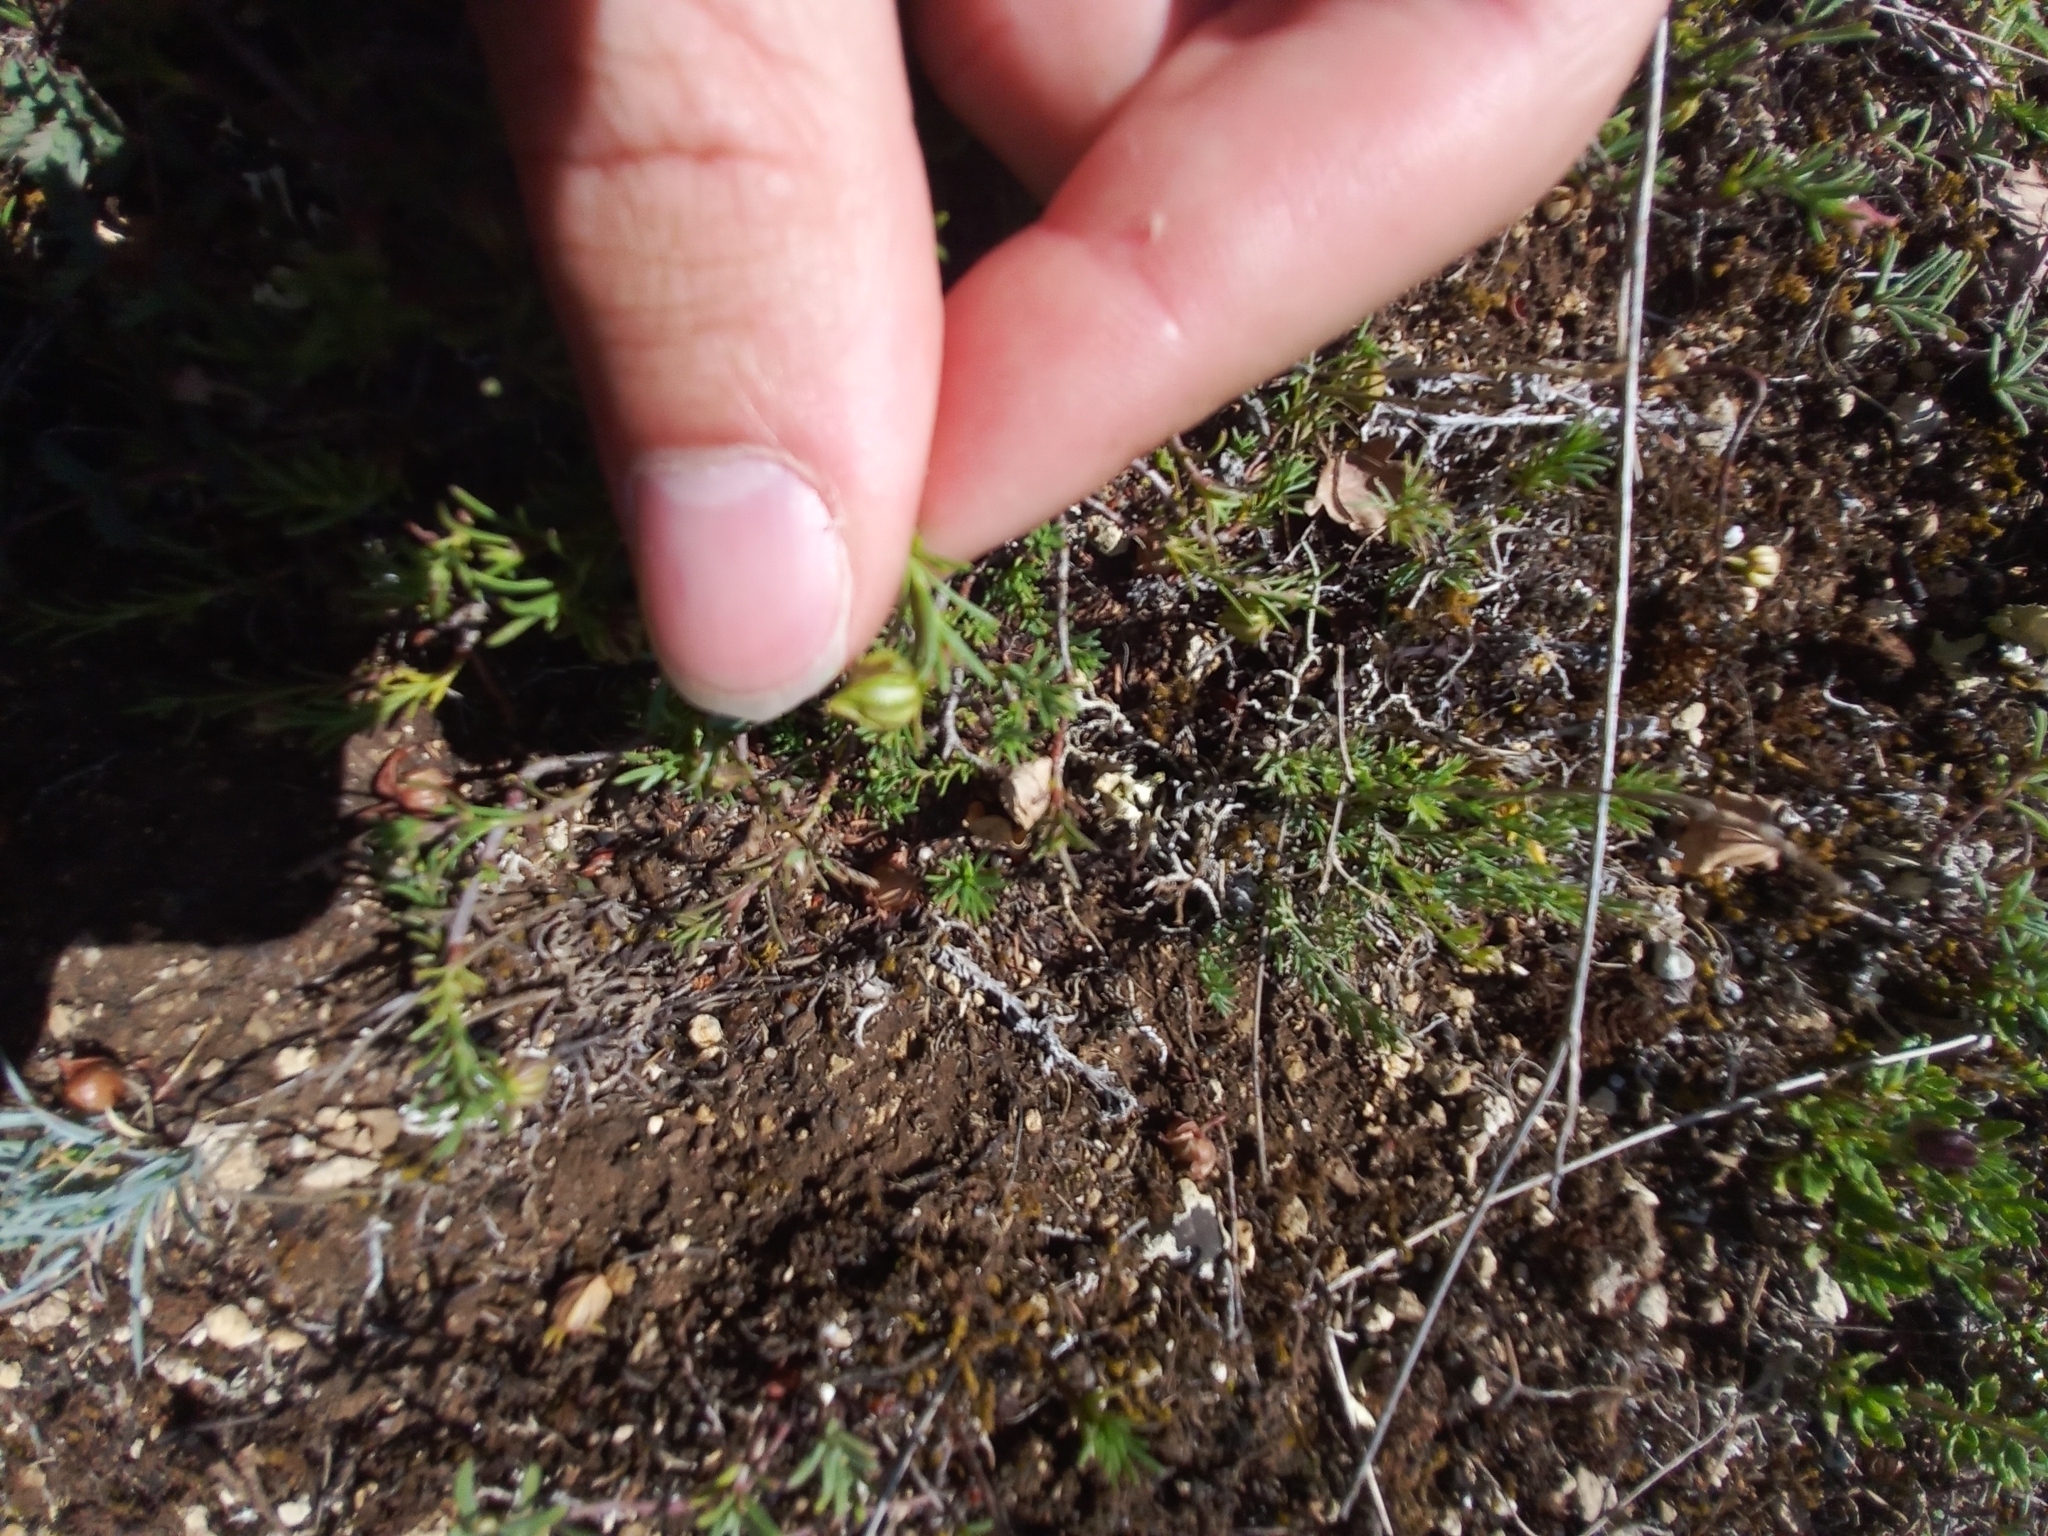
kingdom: Plantae
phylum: Tracheophyta
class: Magnoliopsida
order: Malvales
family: Cistaceae
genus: Fumana
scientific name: Fumana procumbens
